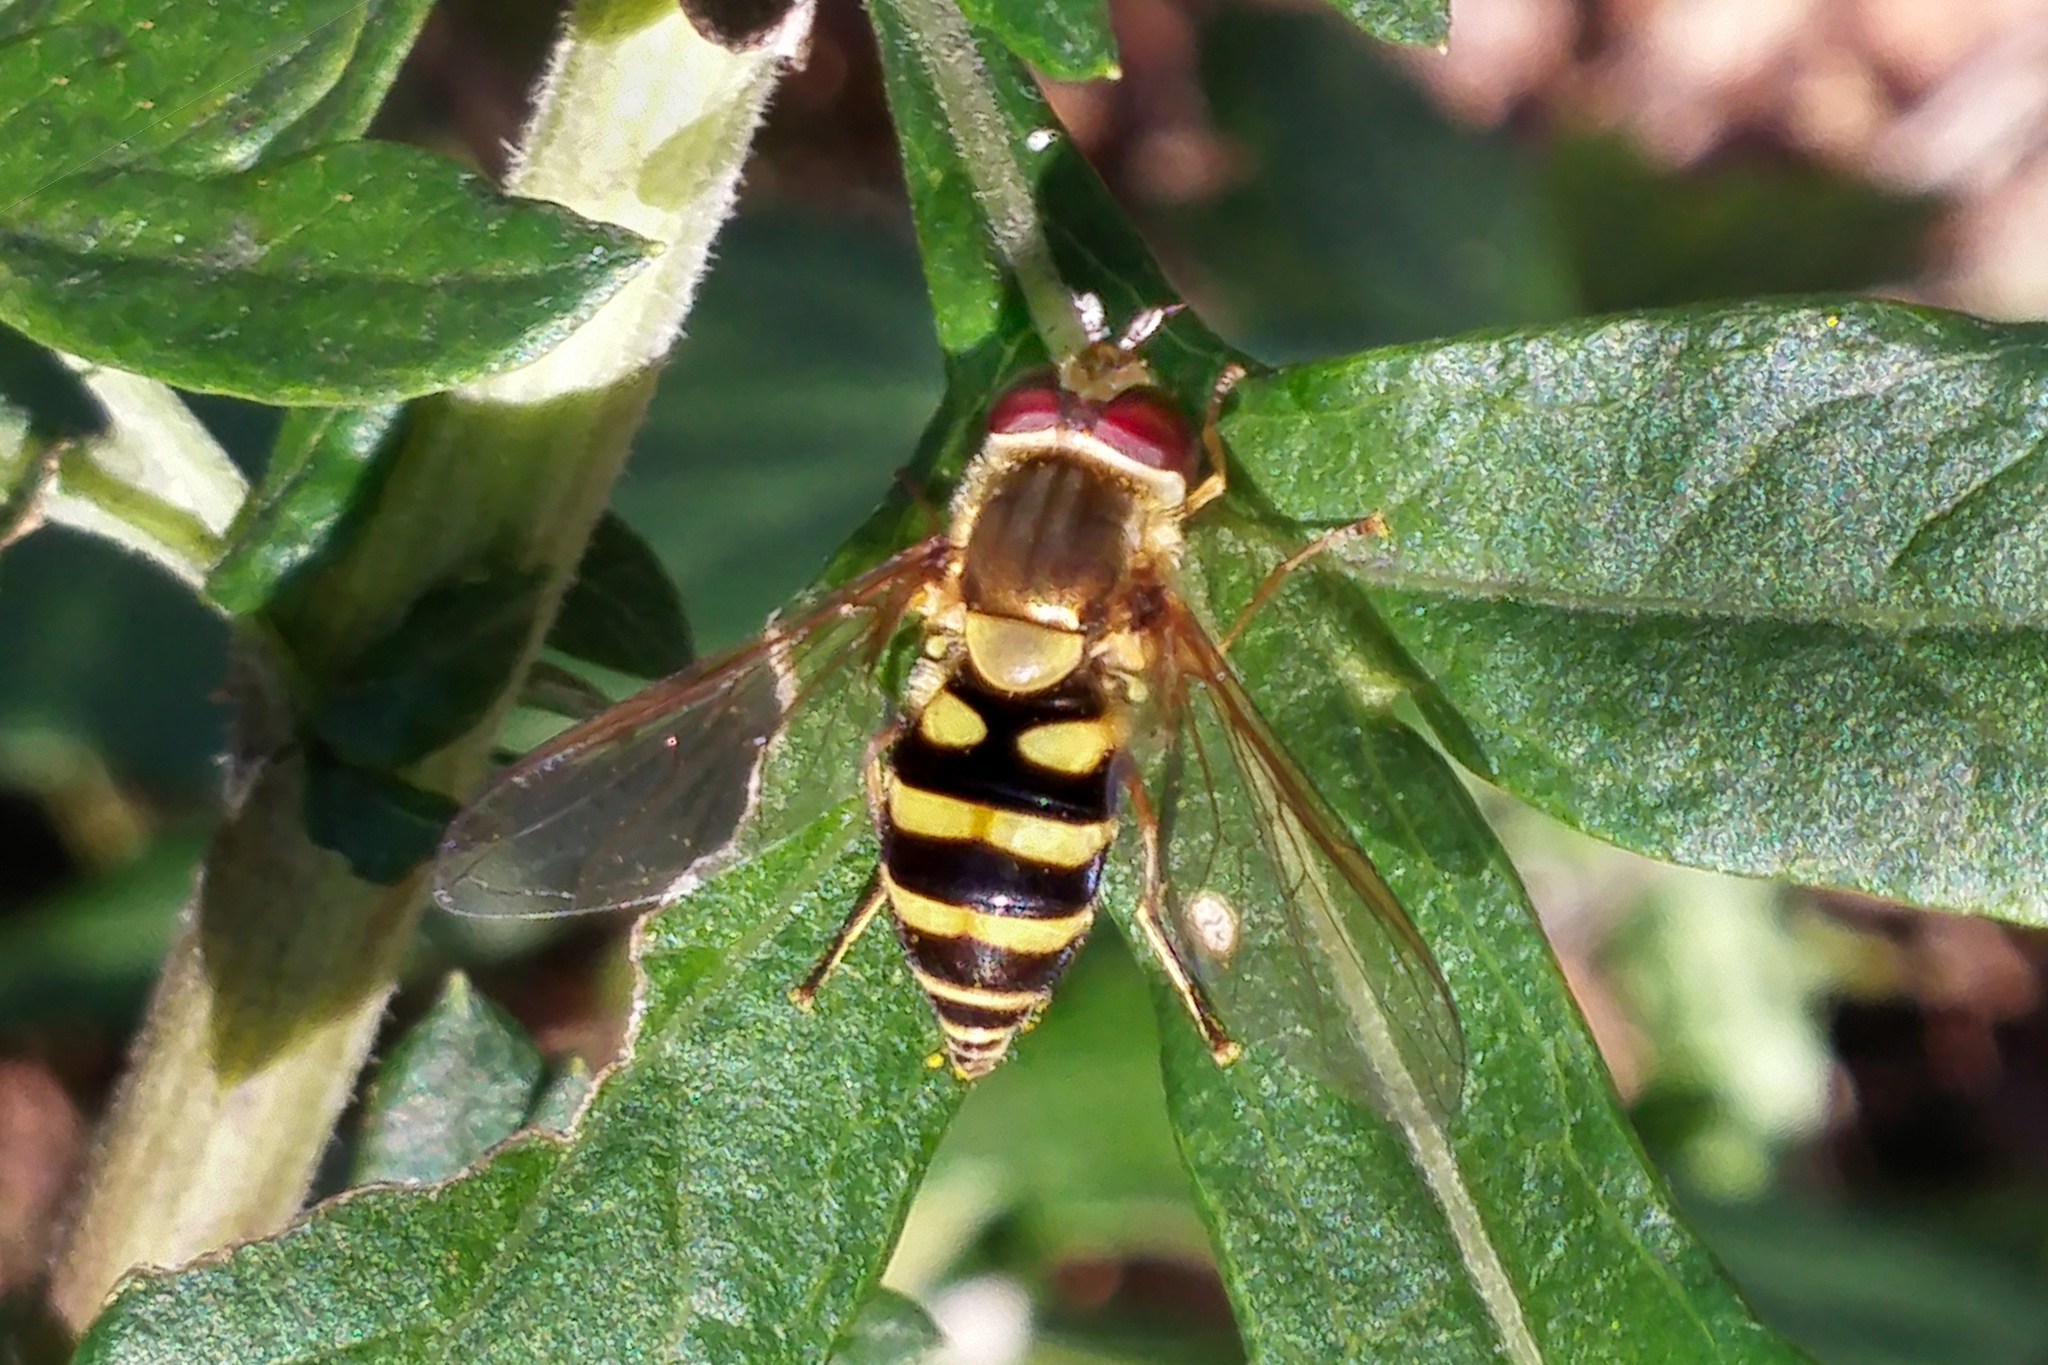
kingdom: Animalia
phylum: Arthropoda
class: Insecta
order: Diptera
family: Syrphidae
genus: Syrphus
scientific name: Syrphus
